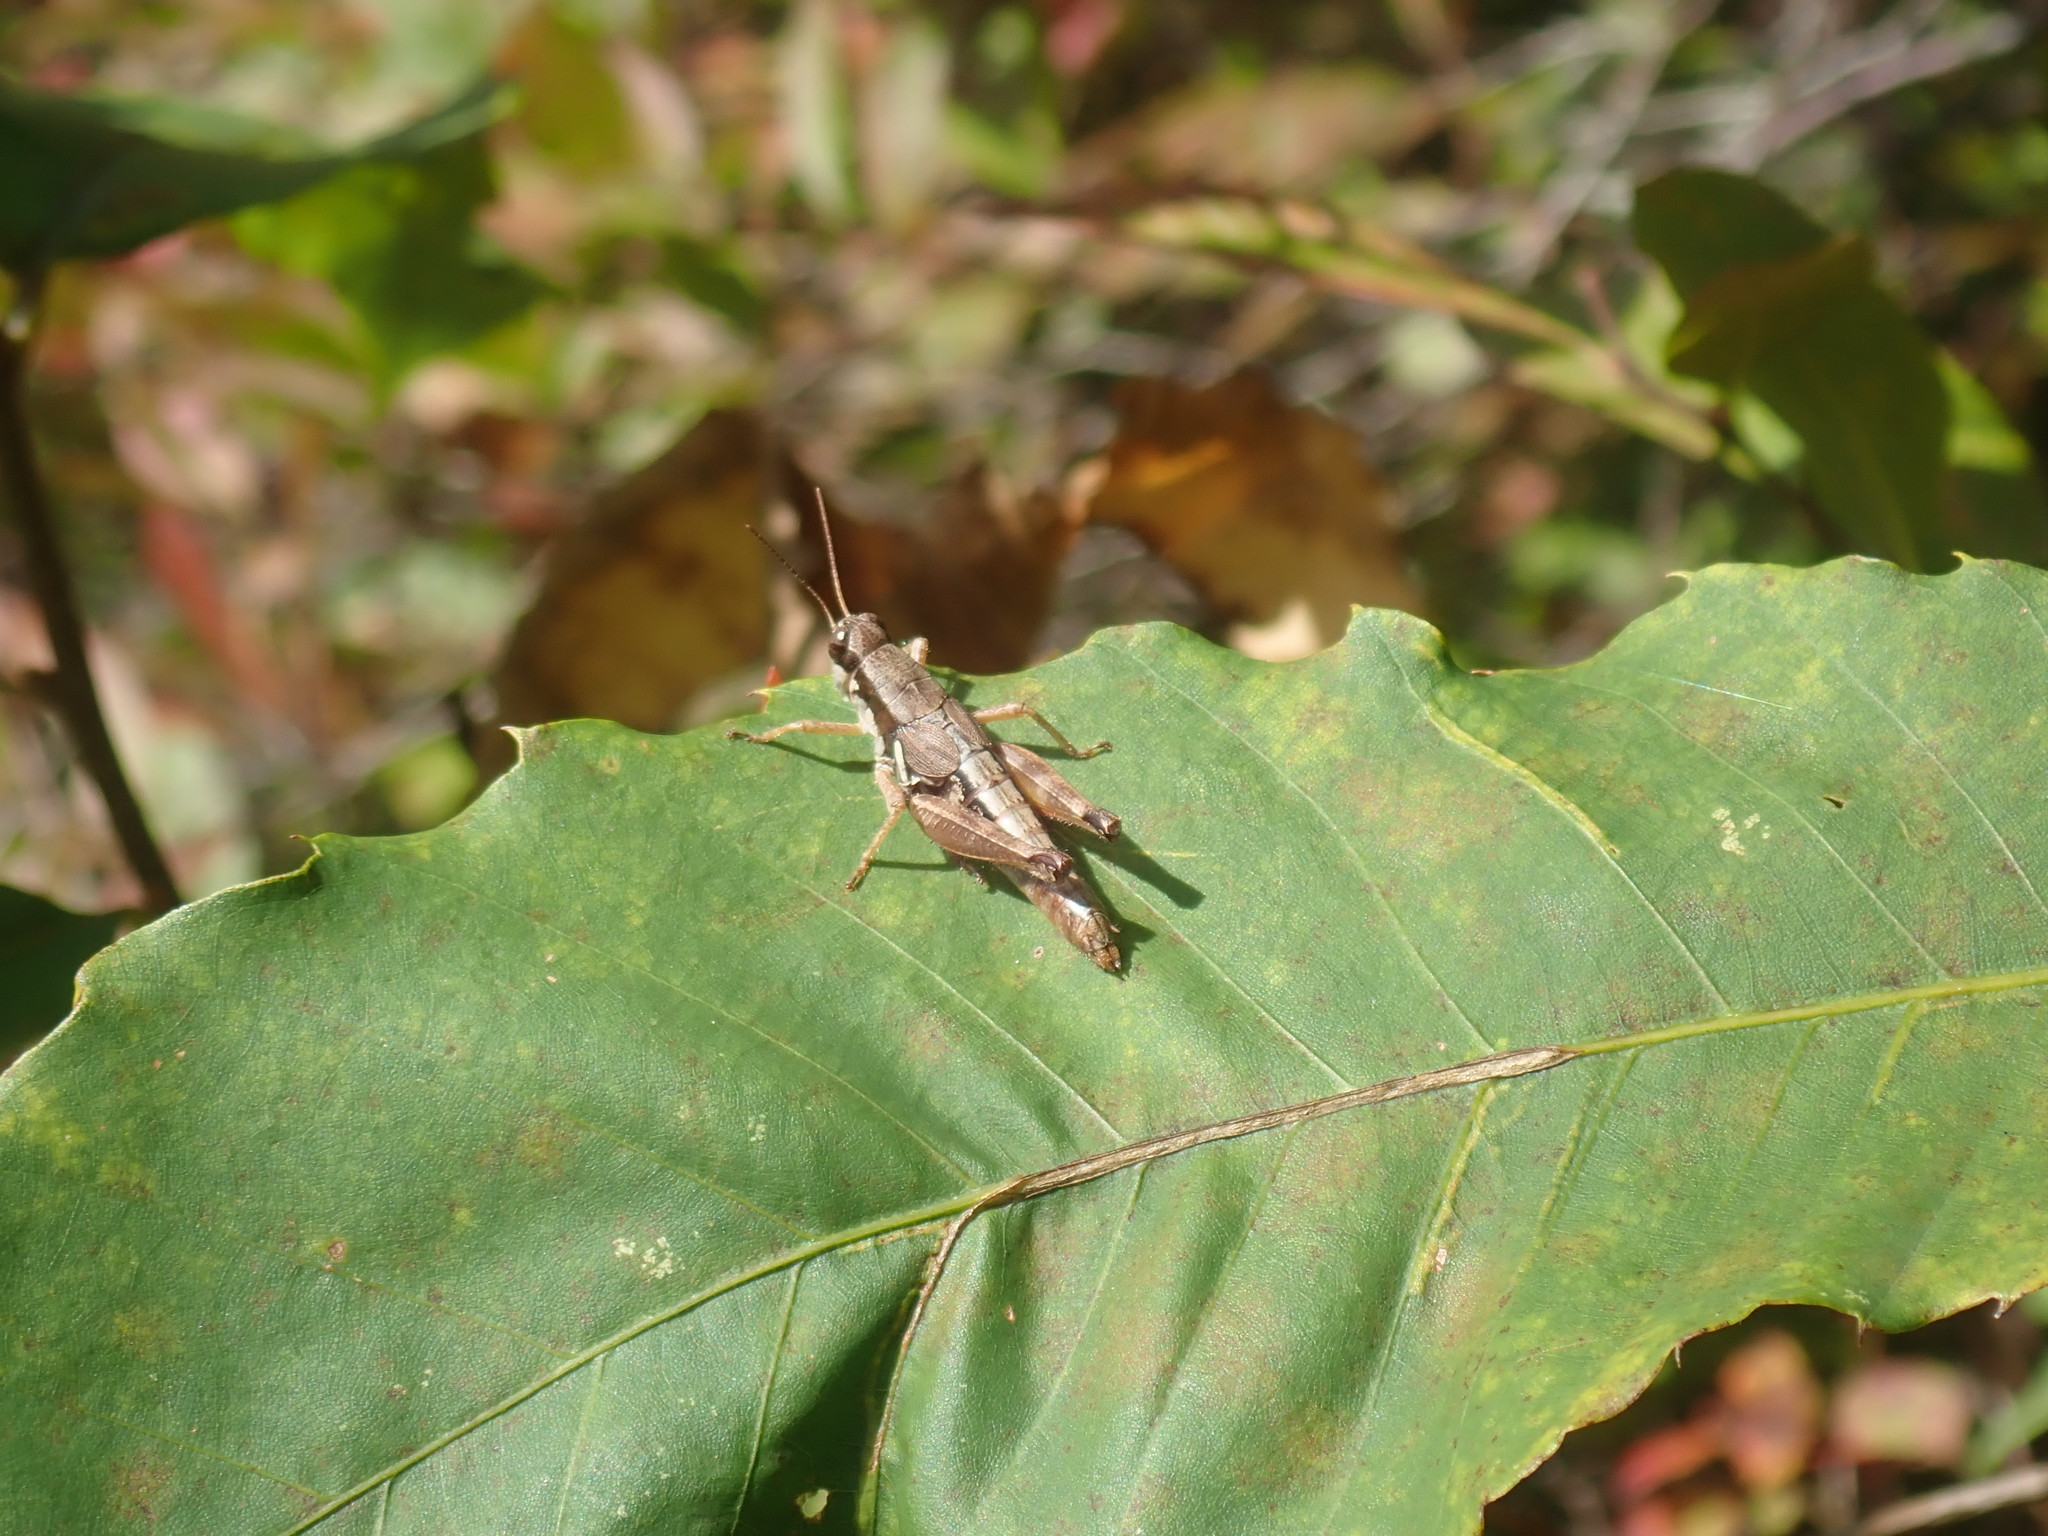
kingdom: Animalia
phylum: Arthropoda
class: Insecta
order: Orthoptera
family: Acrididae
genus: Melanoplus
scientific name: Melanoplus mancus
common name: Smith's spur-throat grasshopper
